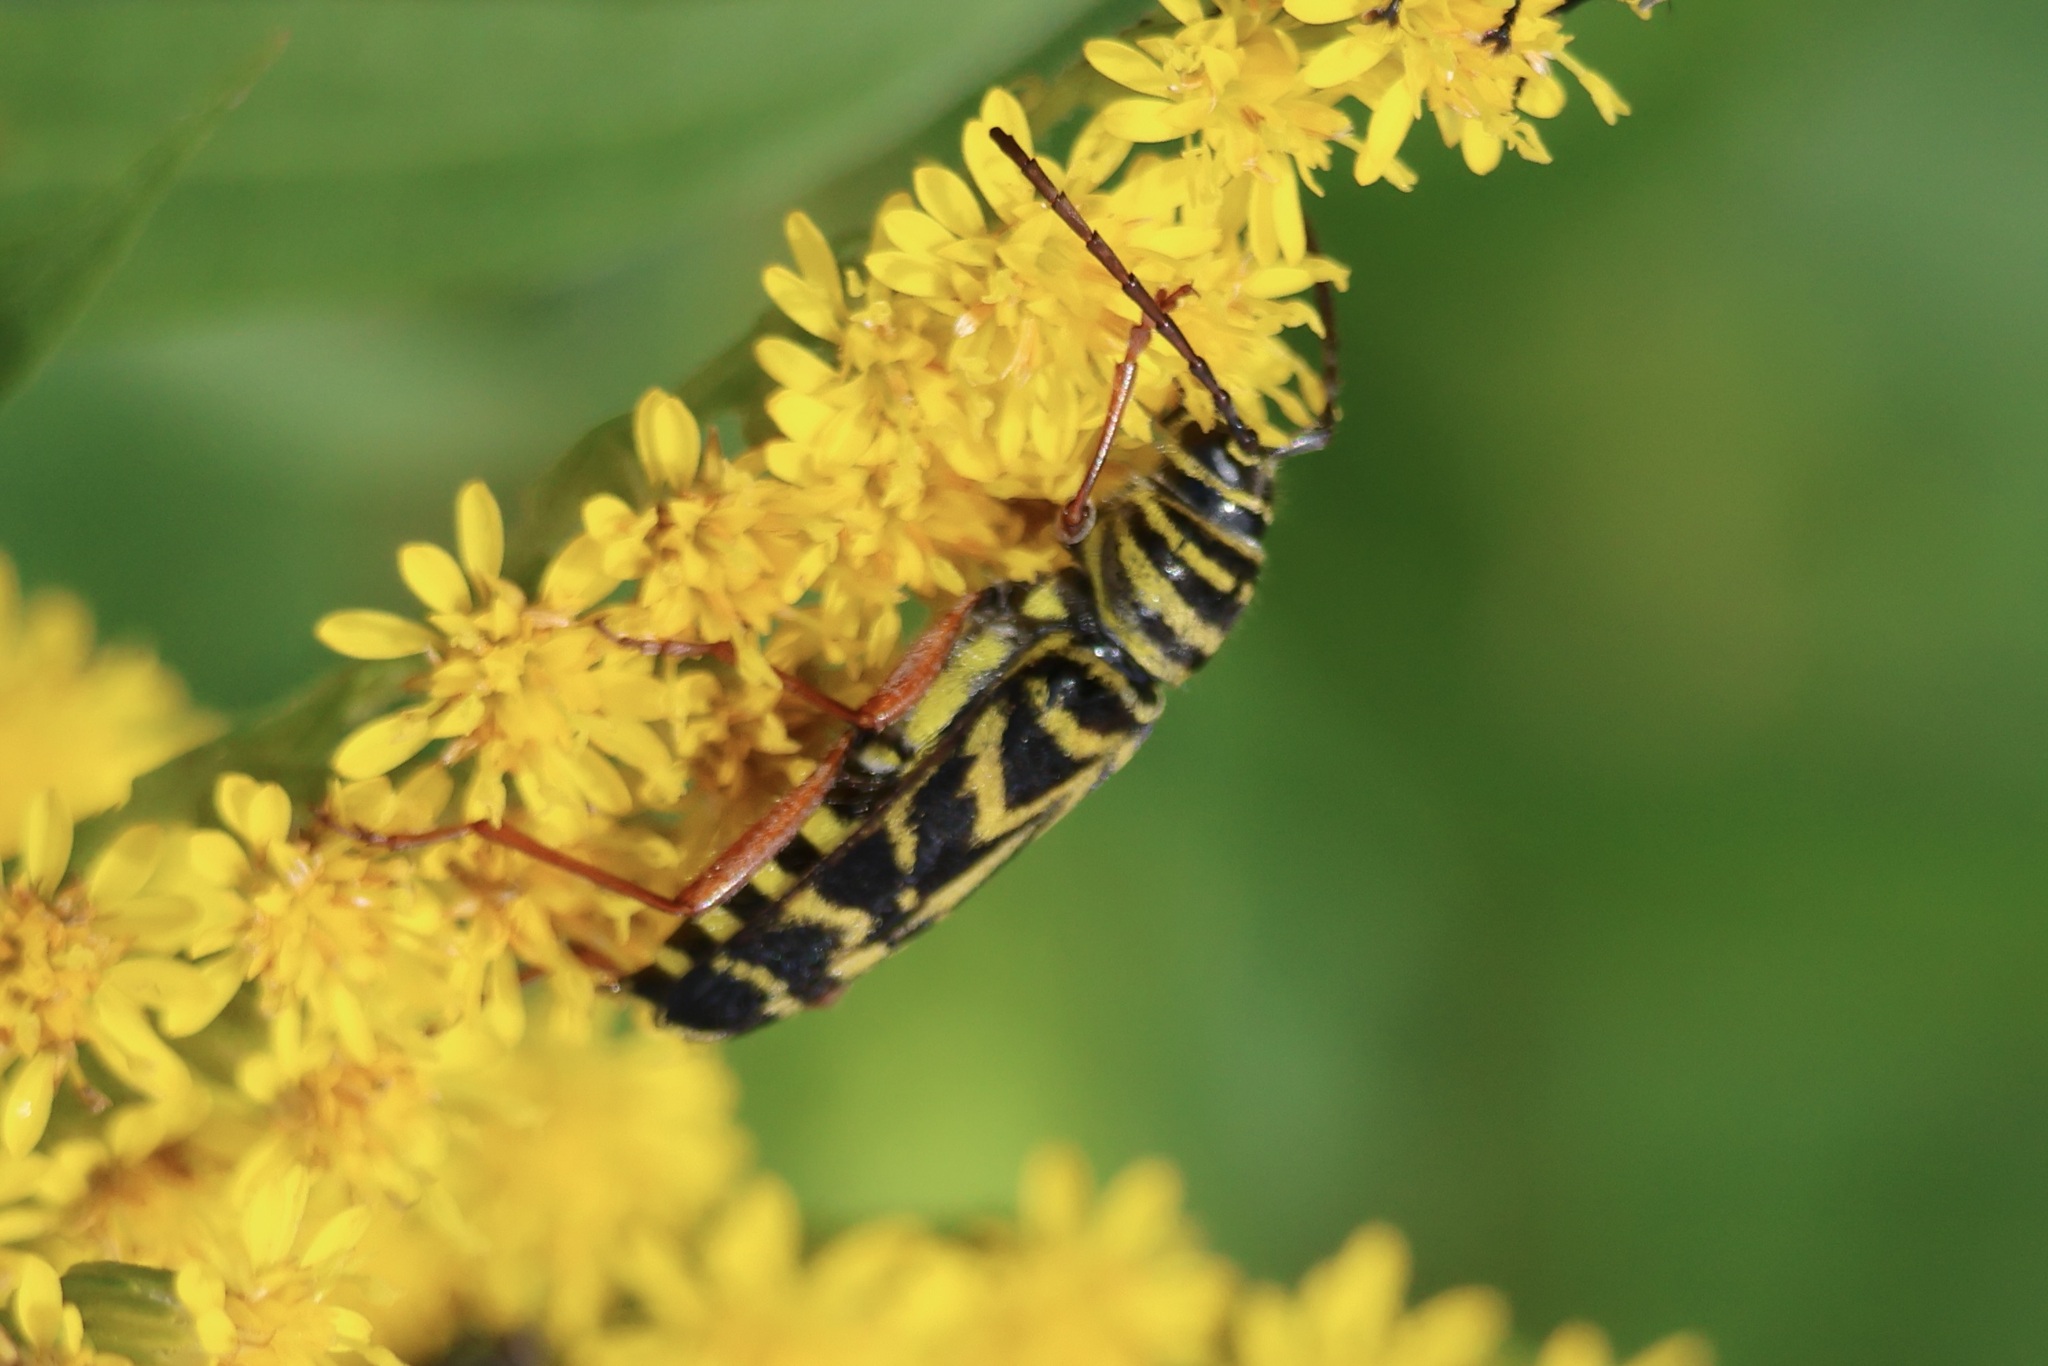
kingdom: Animalia
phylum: Arthropoda
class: Insecta
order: Coleoptera
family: Cerambycidae
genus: Megacyllene
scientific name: Megacyllene robiniae
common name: Locust borer
